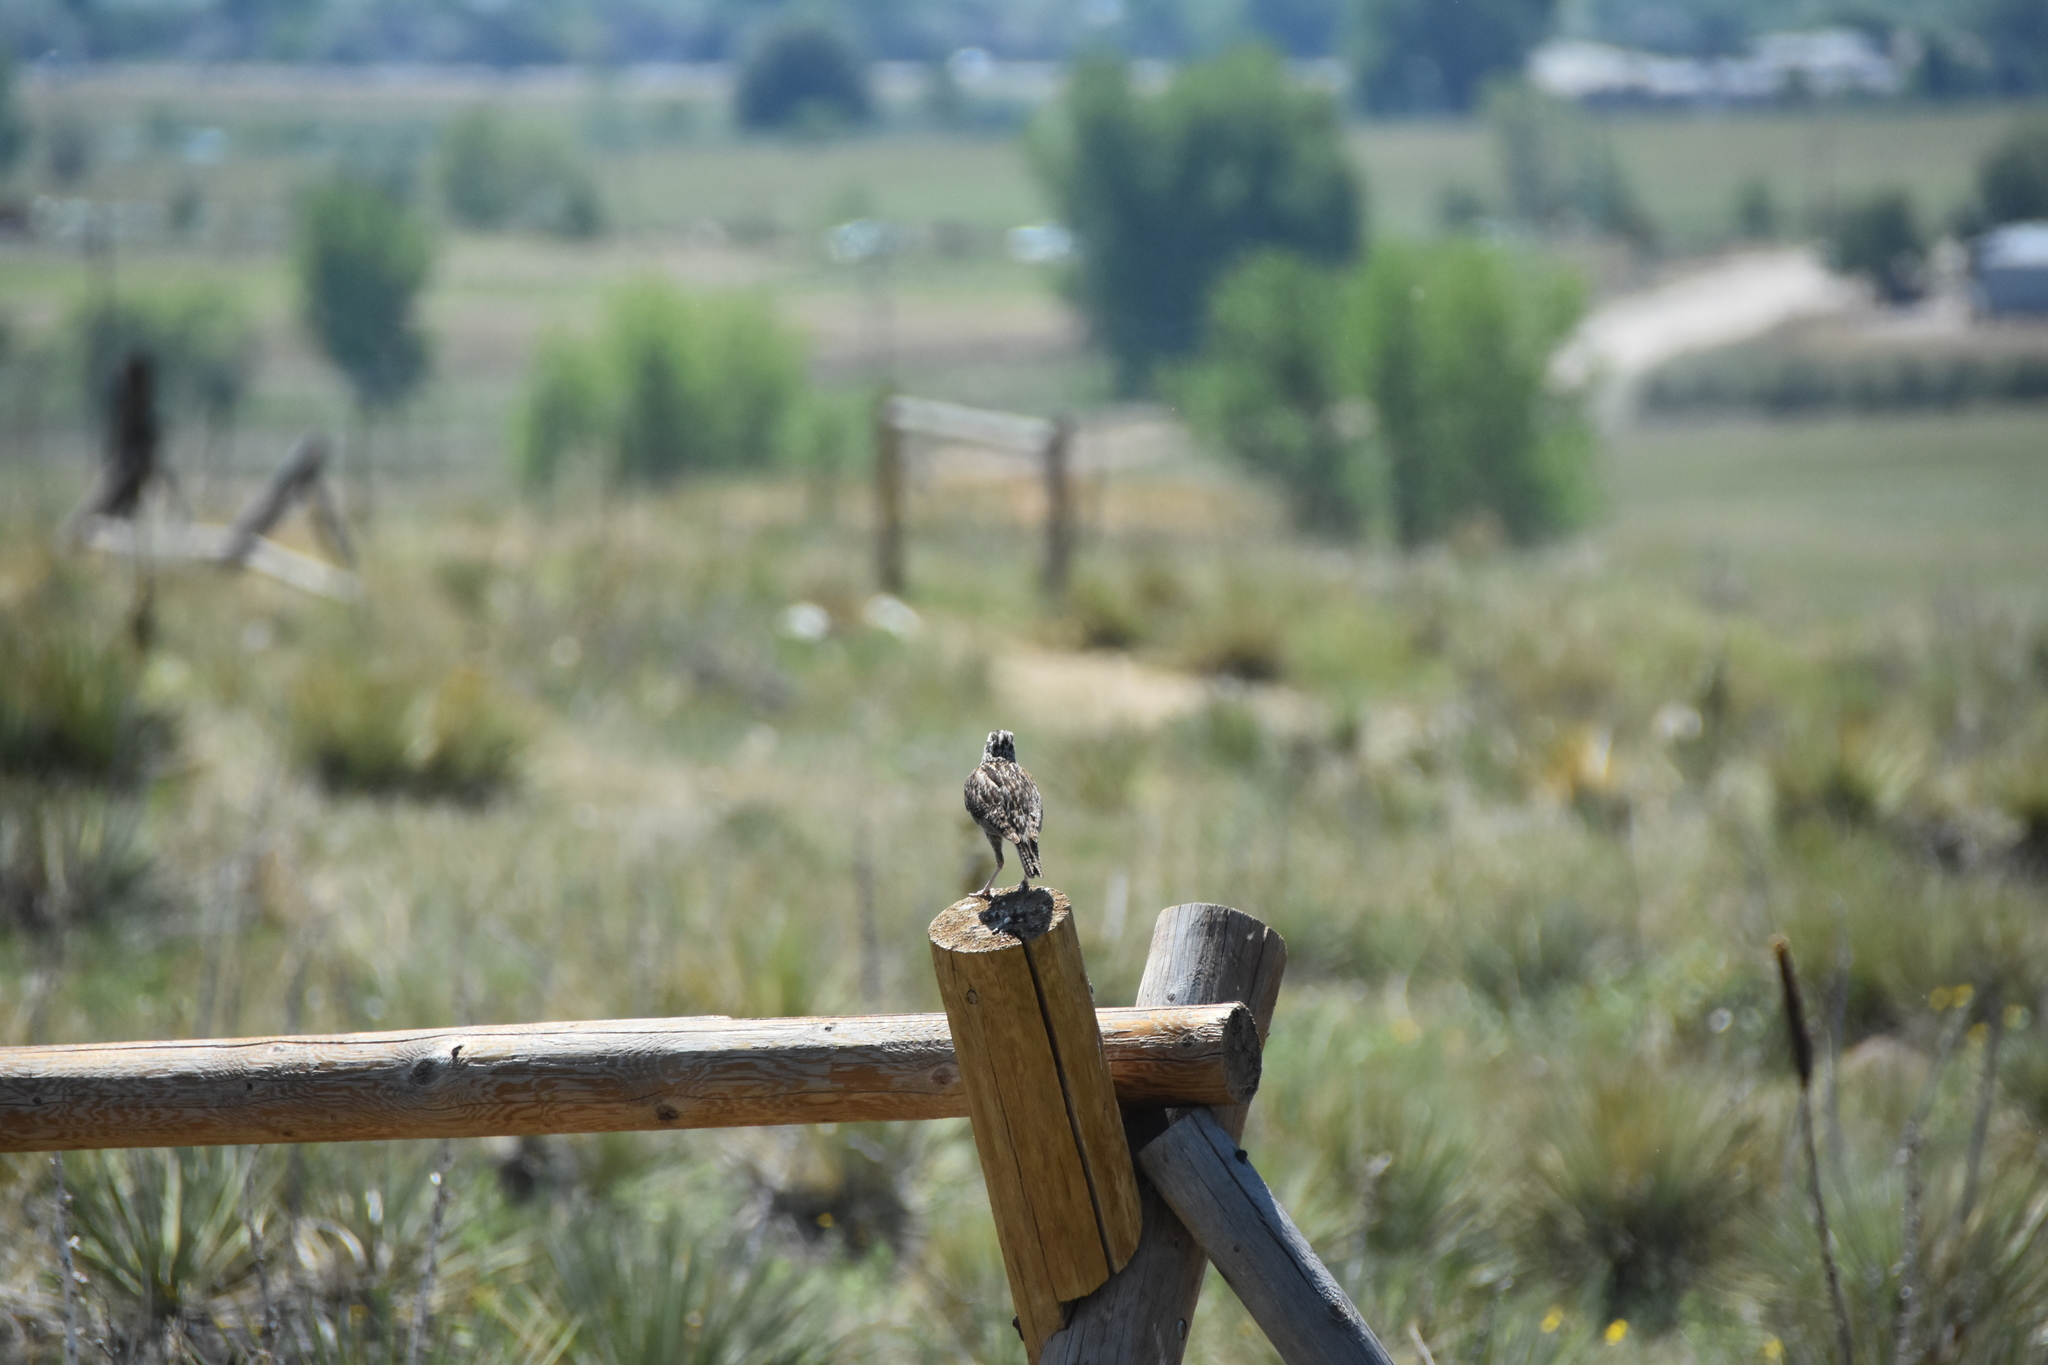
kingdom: Animalia
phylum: Chordata
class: Aves
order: Passeriformes
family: Icteridae
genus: Sturnella
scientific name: Sturnella neglecta
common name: Western meadowlark
